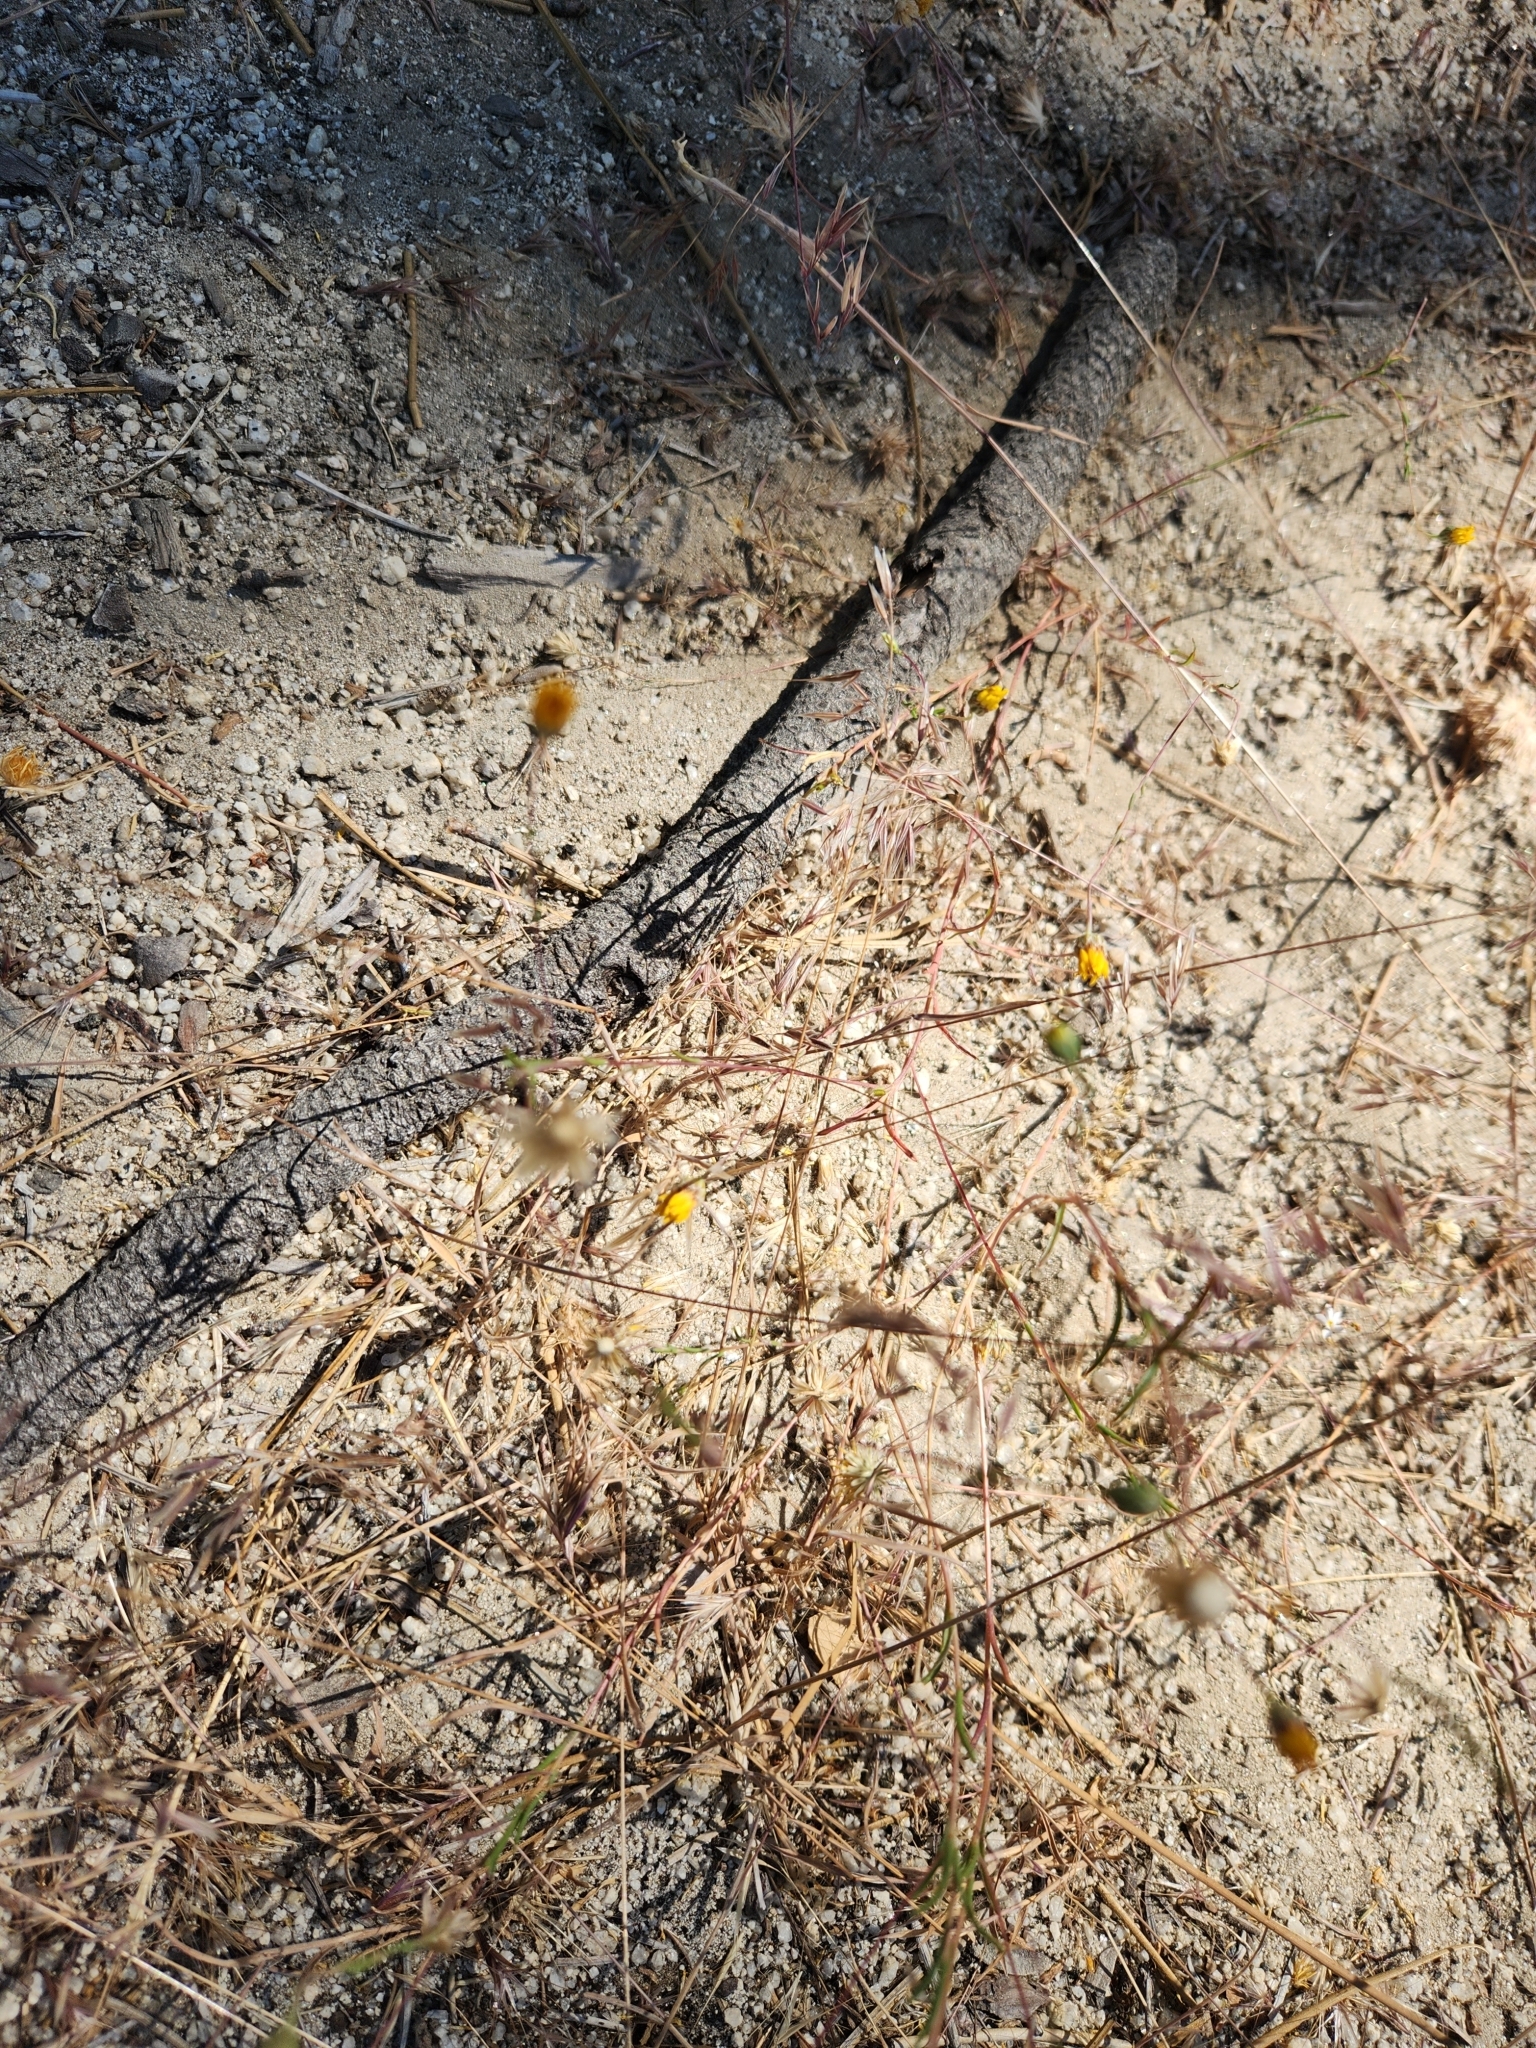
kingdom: Plantae
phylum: Tracheophyta
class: Magnoliopsida
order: Asterales
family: Asteraceae
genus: Pentachaeta
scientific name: Pentachaeta aurea
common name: Golden-ray pentachaeta
